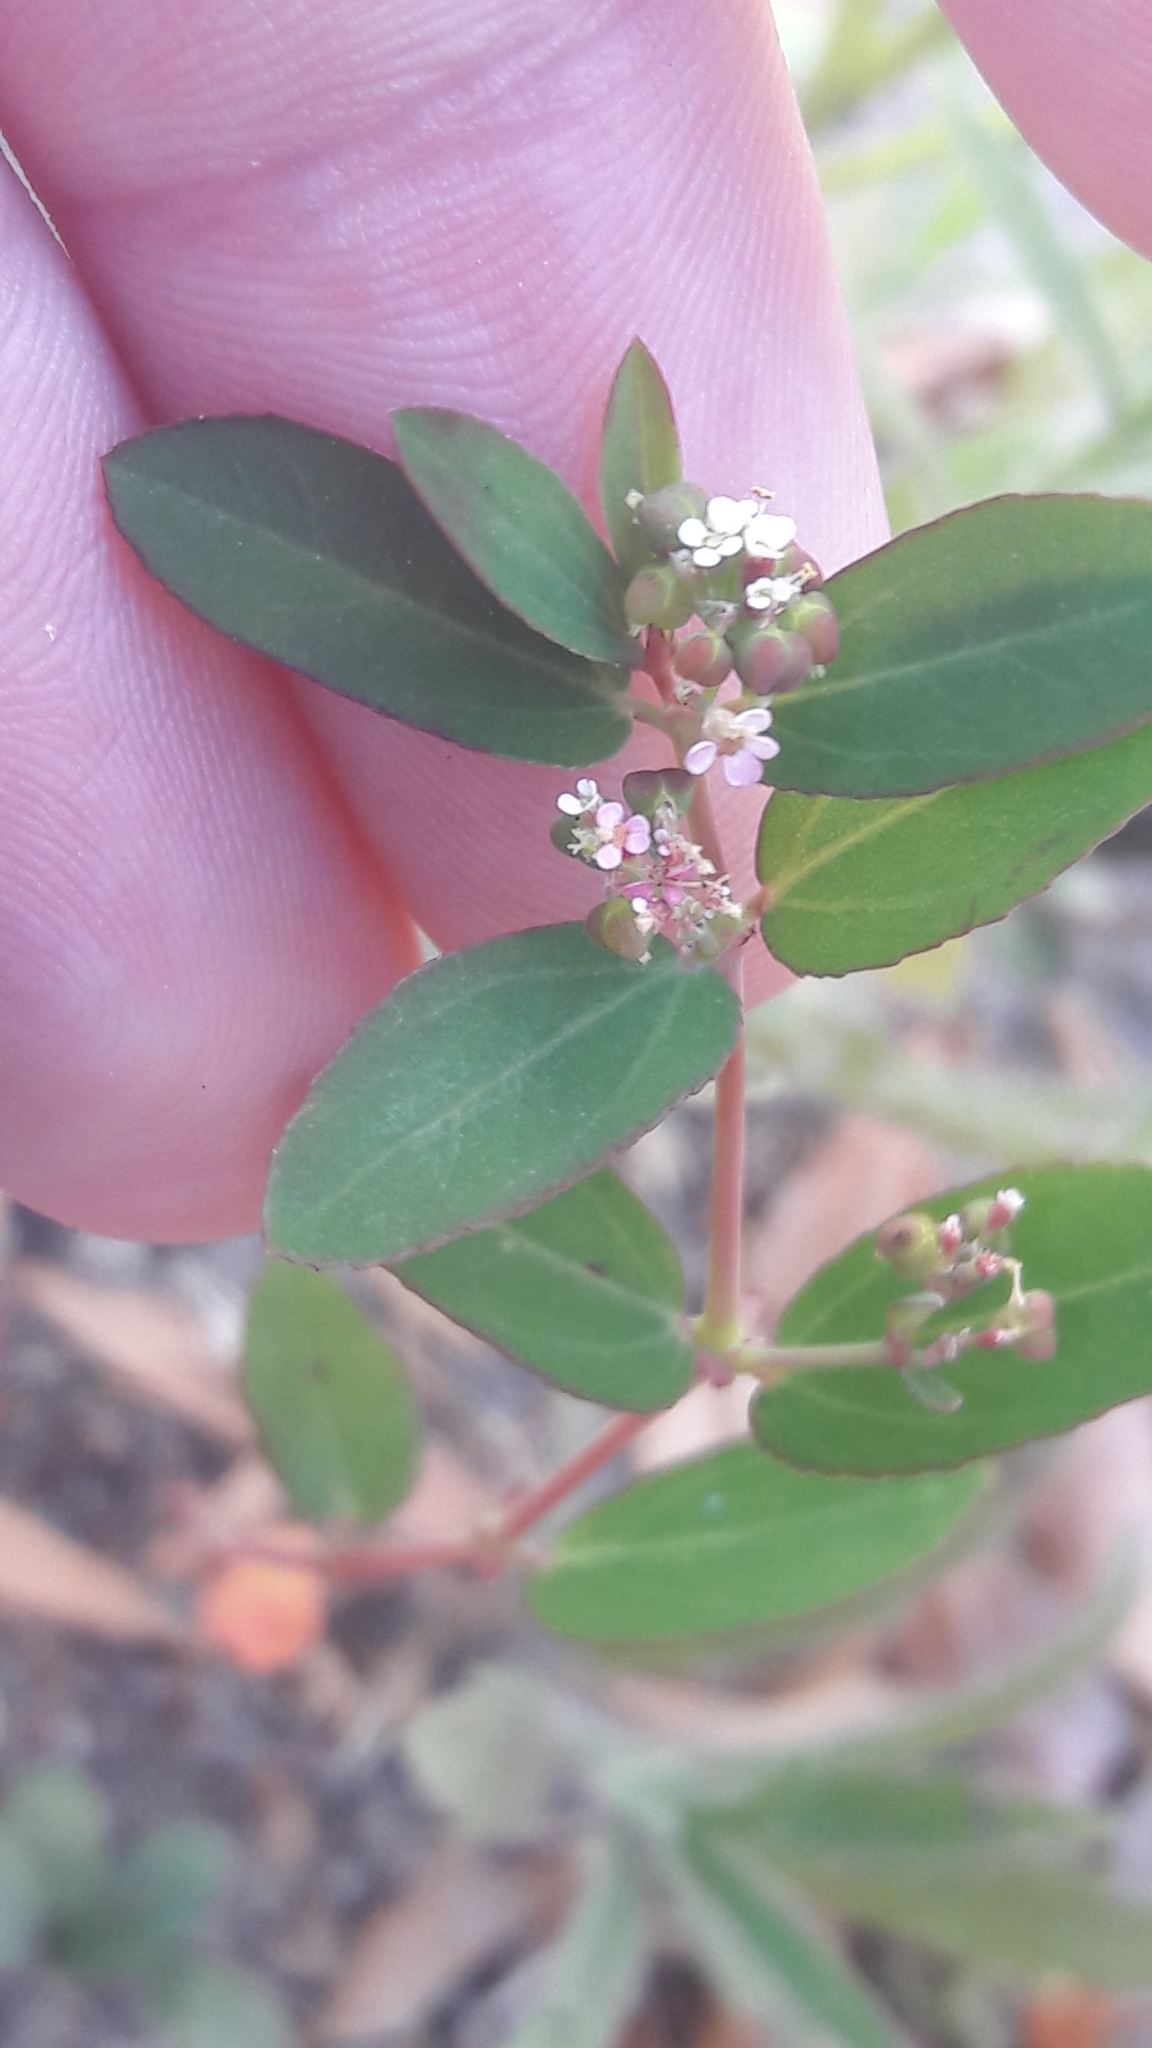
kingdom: Plantae
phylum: Tracheophyta
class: Magnoliopsida
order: Malpighiales
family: Euphorbiaceae
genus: Euphorbia
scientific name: Euphorbia hypericifolia
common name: Graceful sandmat
